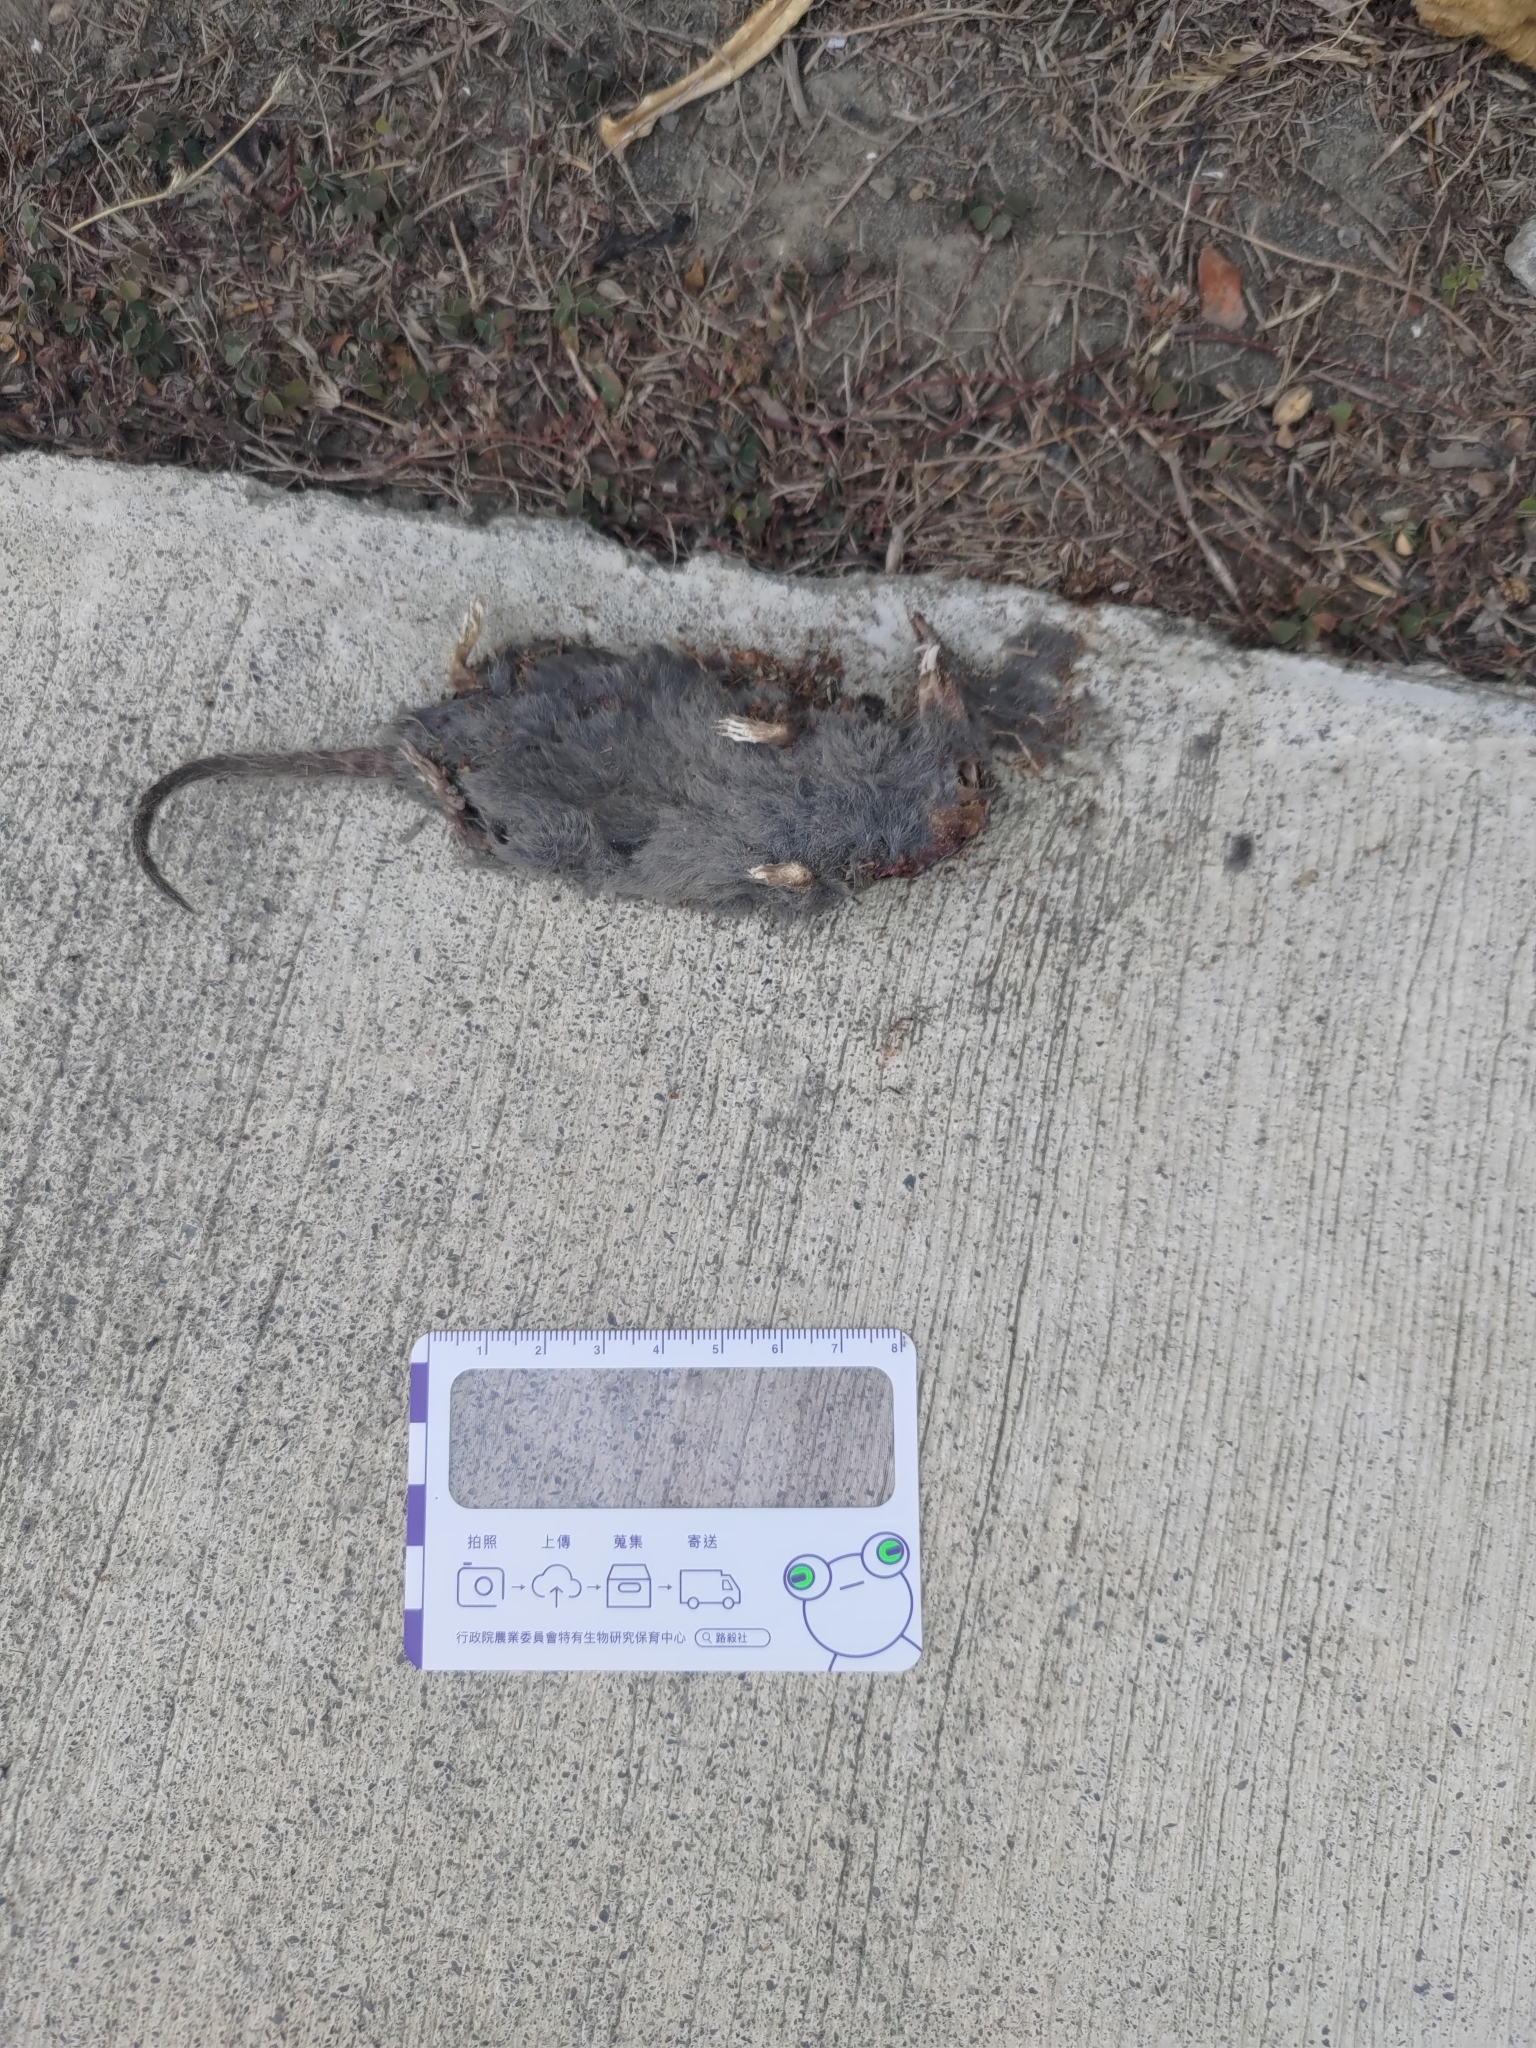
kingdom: Animalia
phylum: Chordata
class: Mammalia
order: Soricomorpha
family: Soricidae
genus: Suncus
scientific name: Suncus murinus
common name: Asian house shrew
